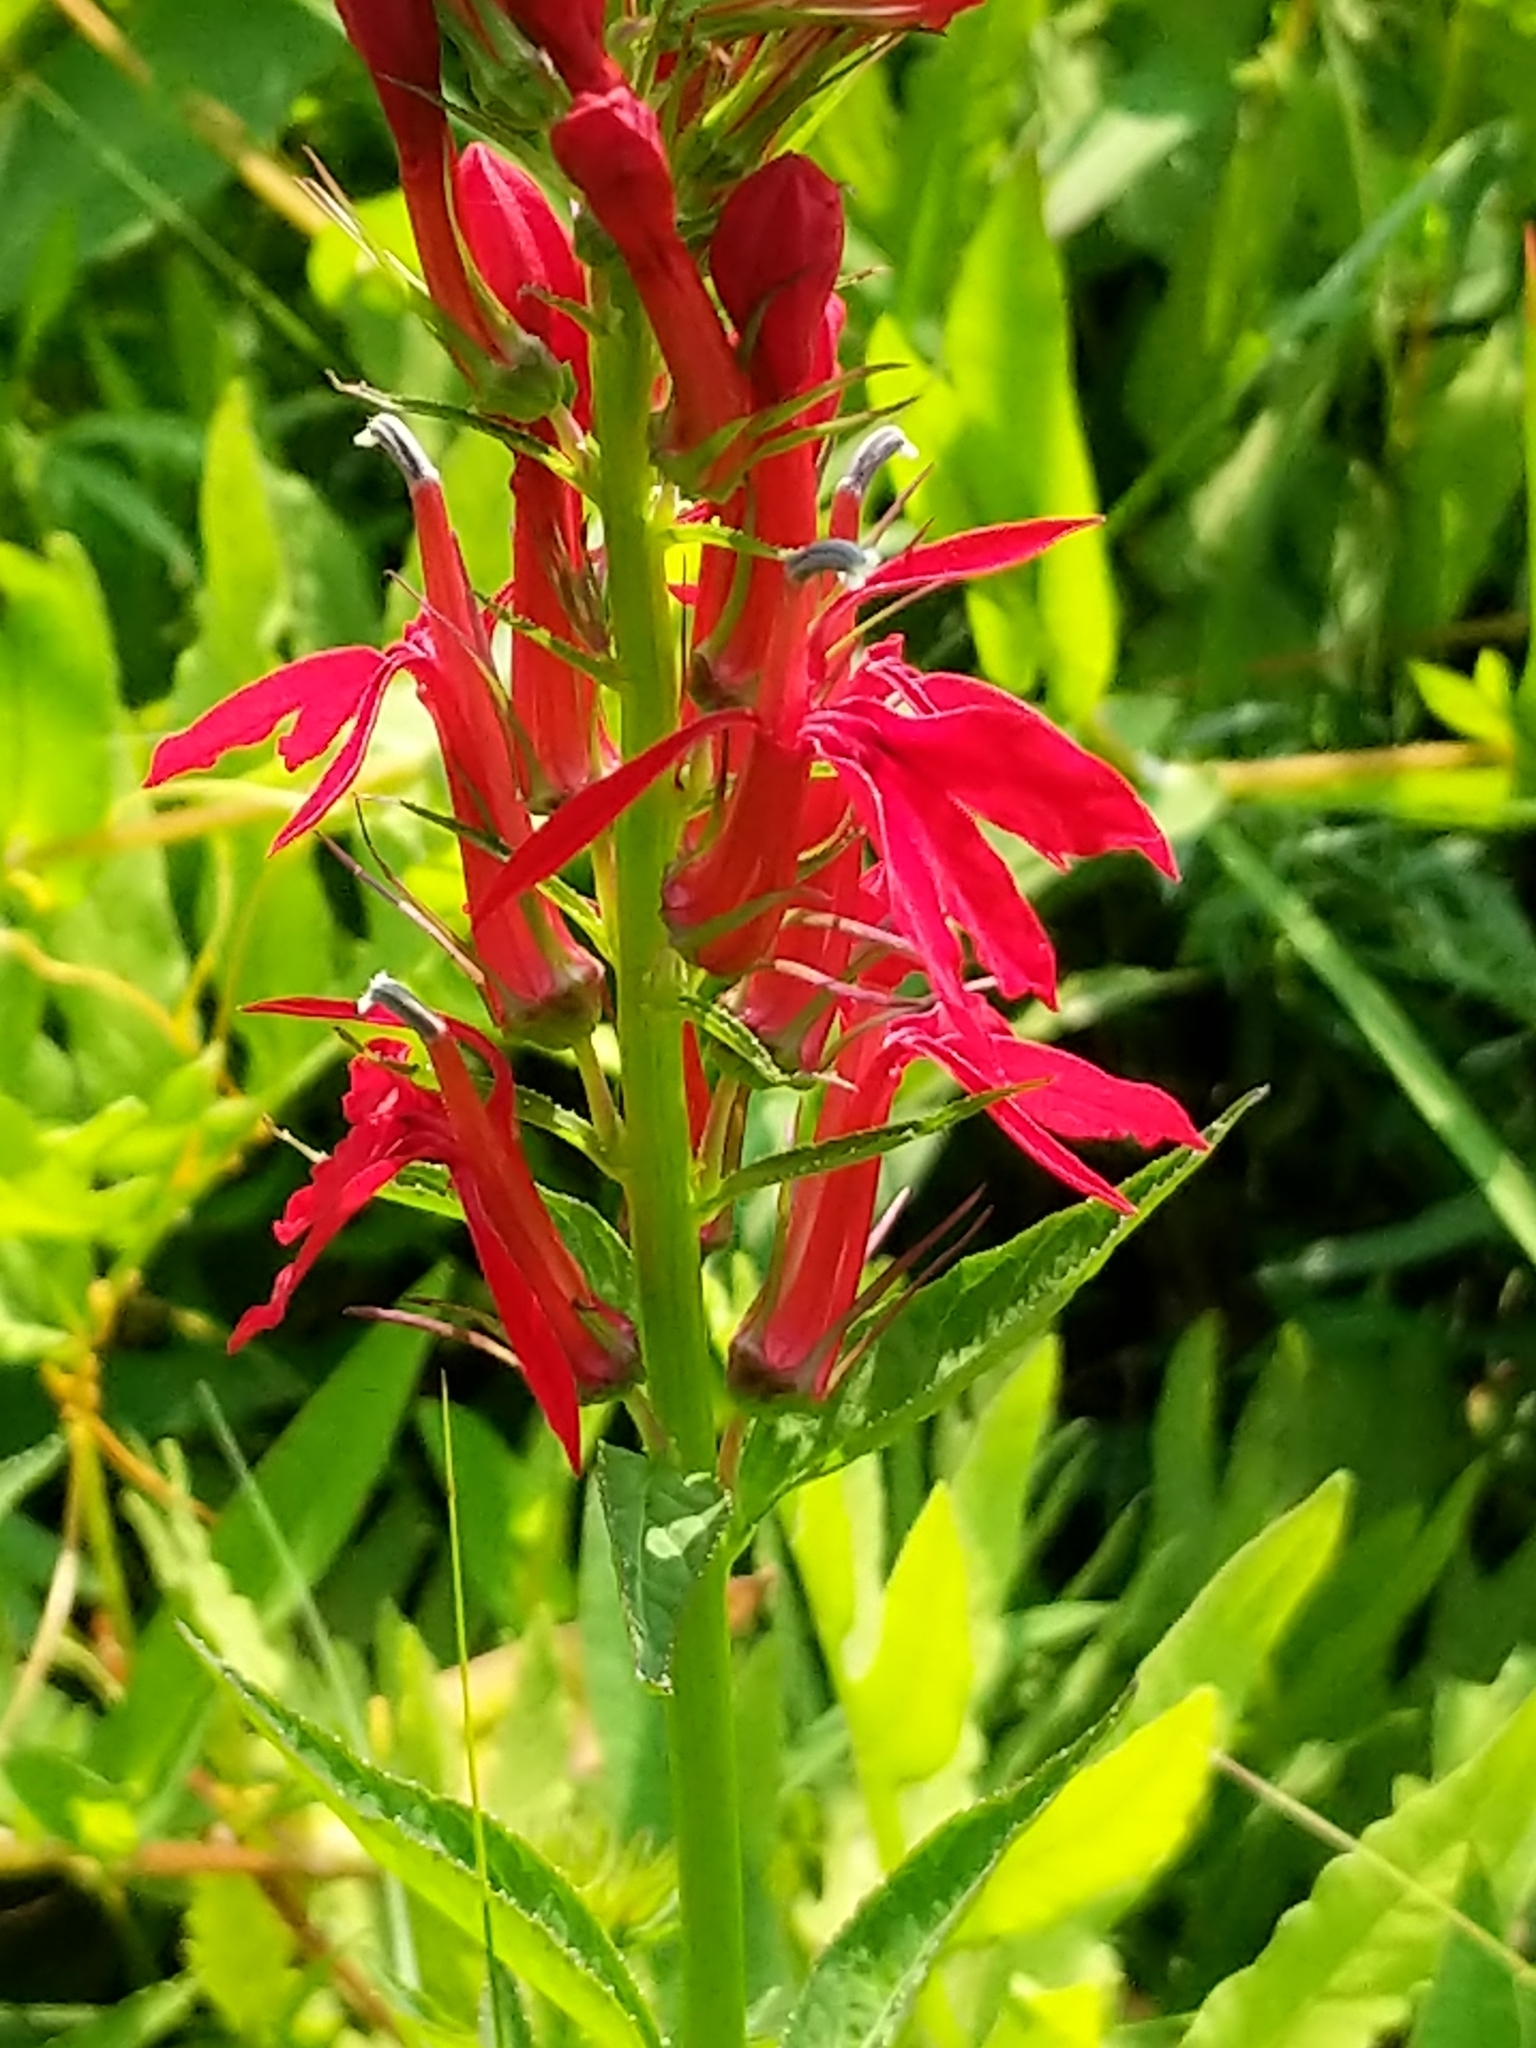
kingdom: Plantae
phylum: Tracheophyta
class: Magnoliopsida
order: Asterales
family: Campanulaceae
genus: Lobelia
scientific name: Lobelia cardinalis
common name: Cardinal flower
